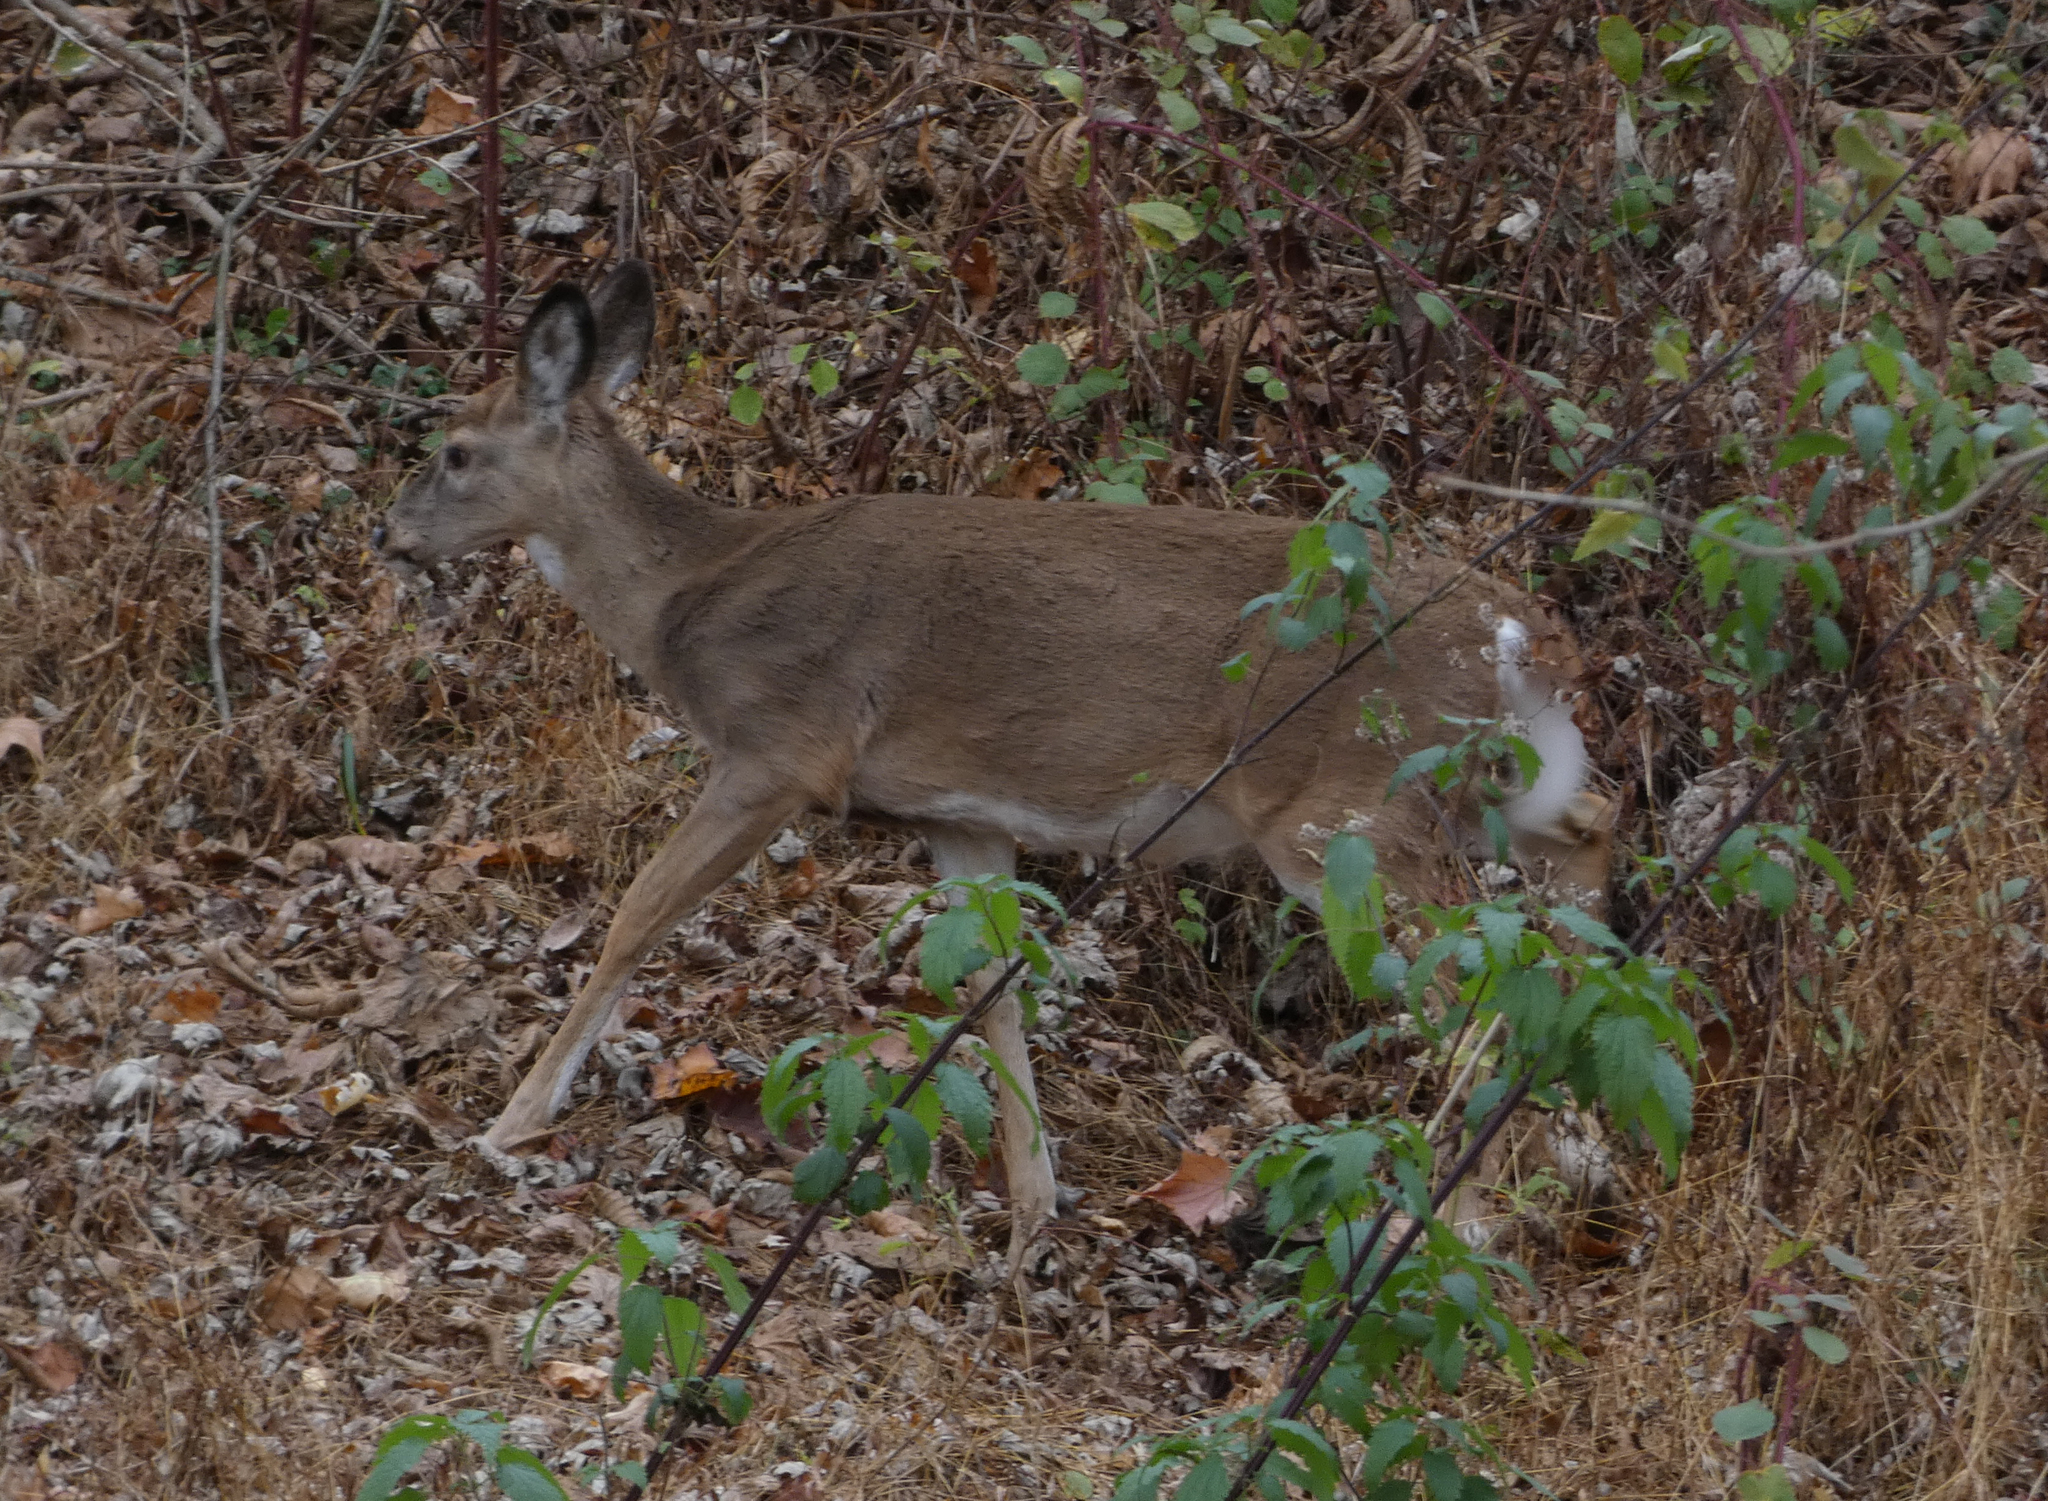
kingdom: Animalia
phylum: Chordata
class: Mammalia
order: Artiodactyla
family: Cervidae
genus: Odocoileus
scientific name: Odocoileus virginianus
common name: White-tailed deer
